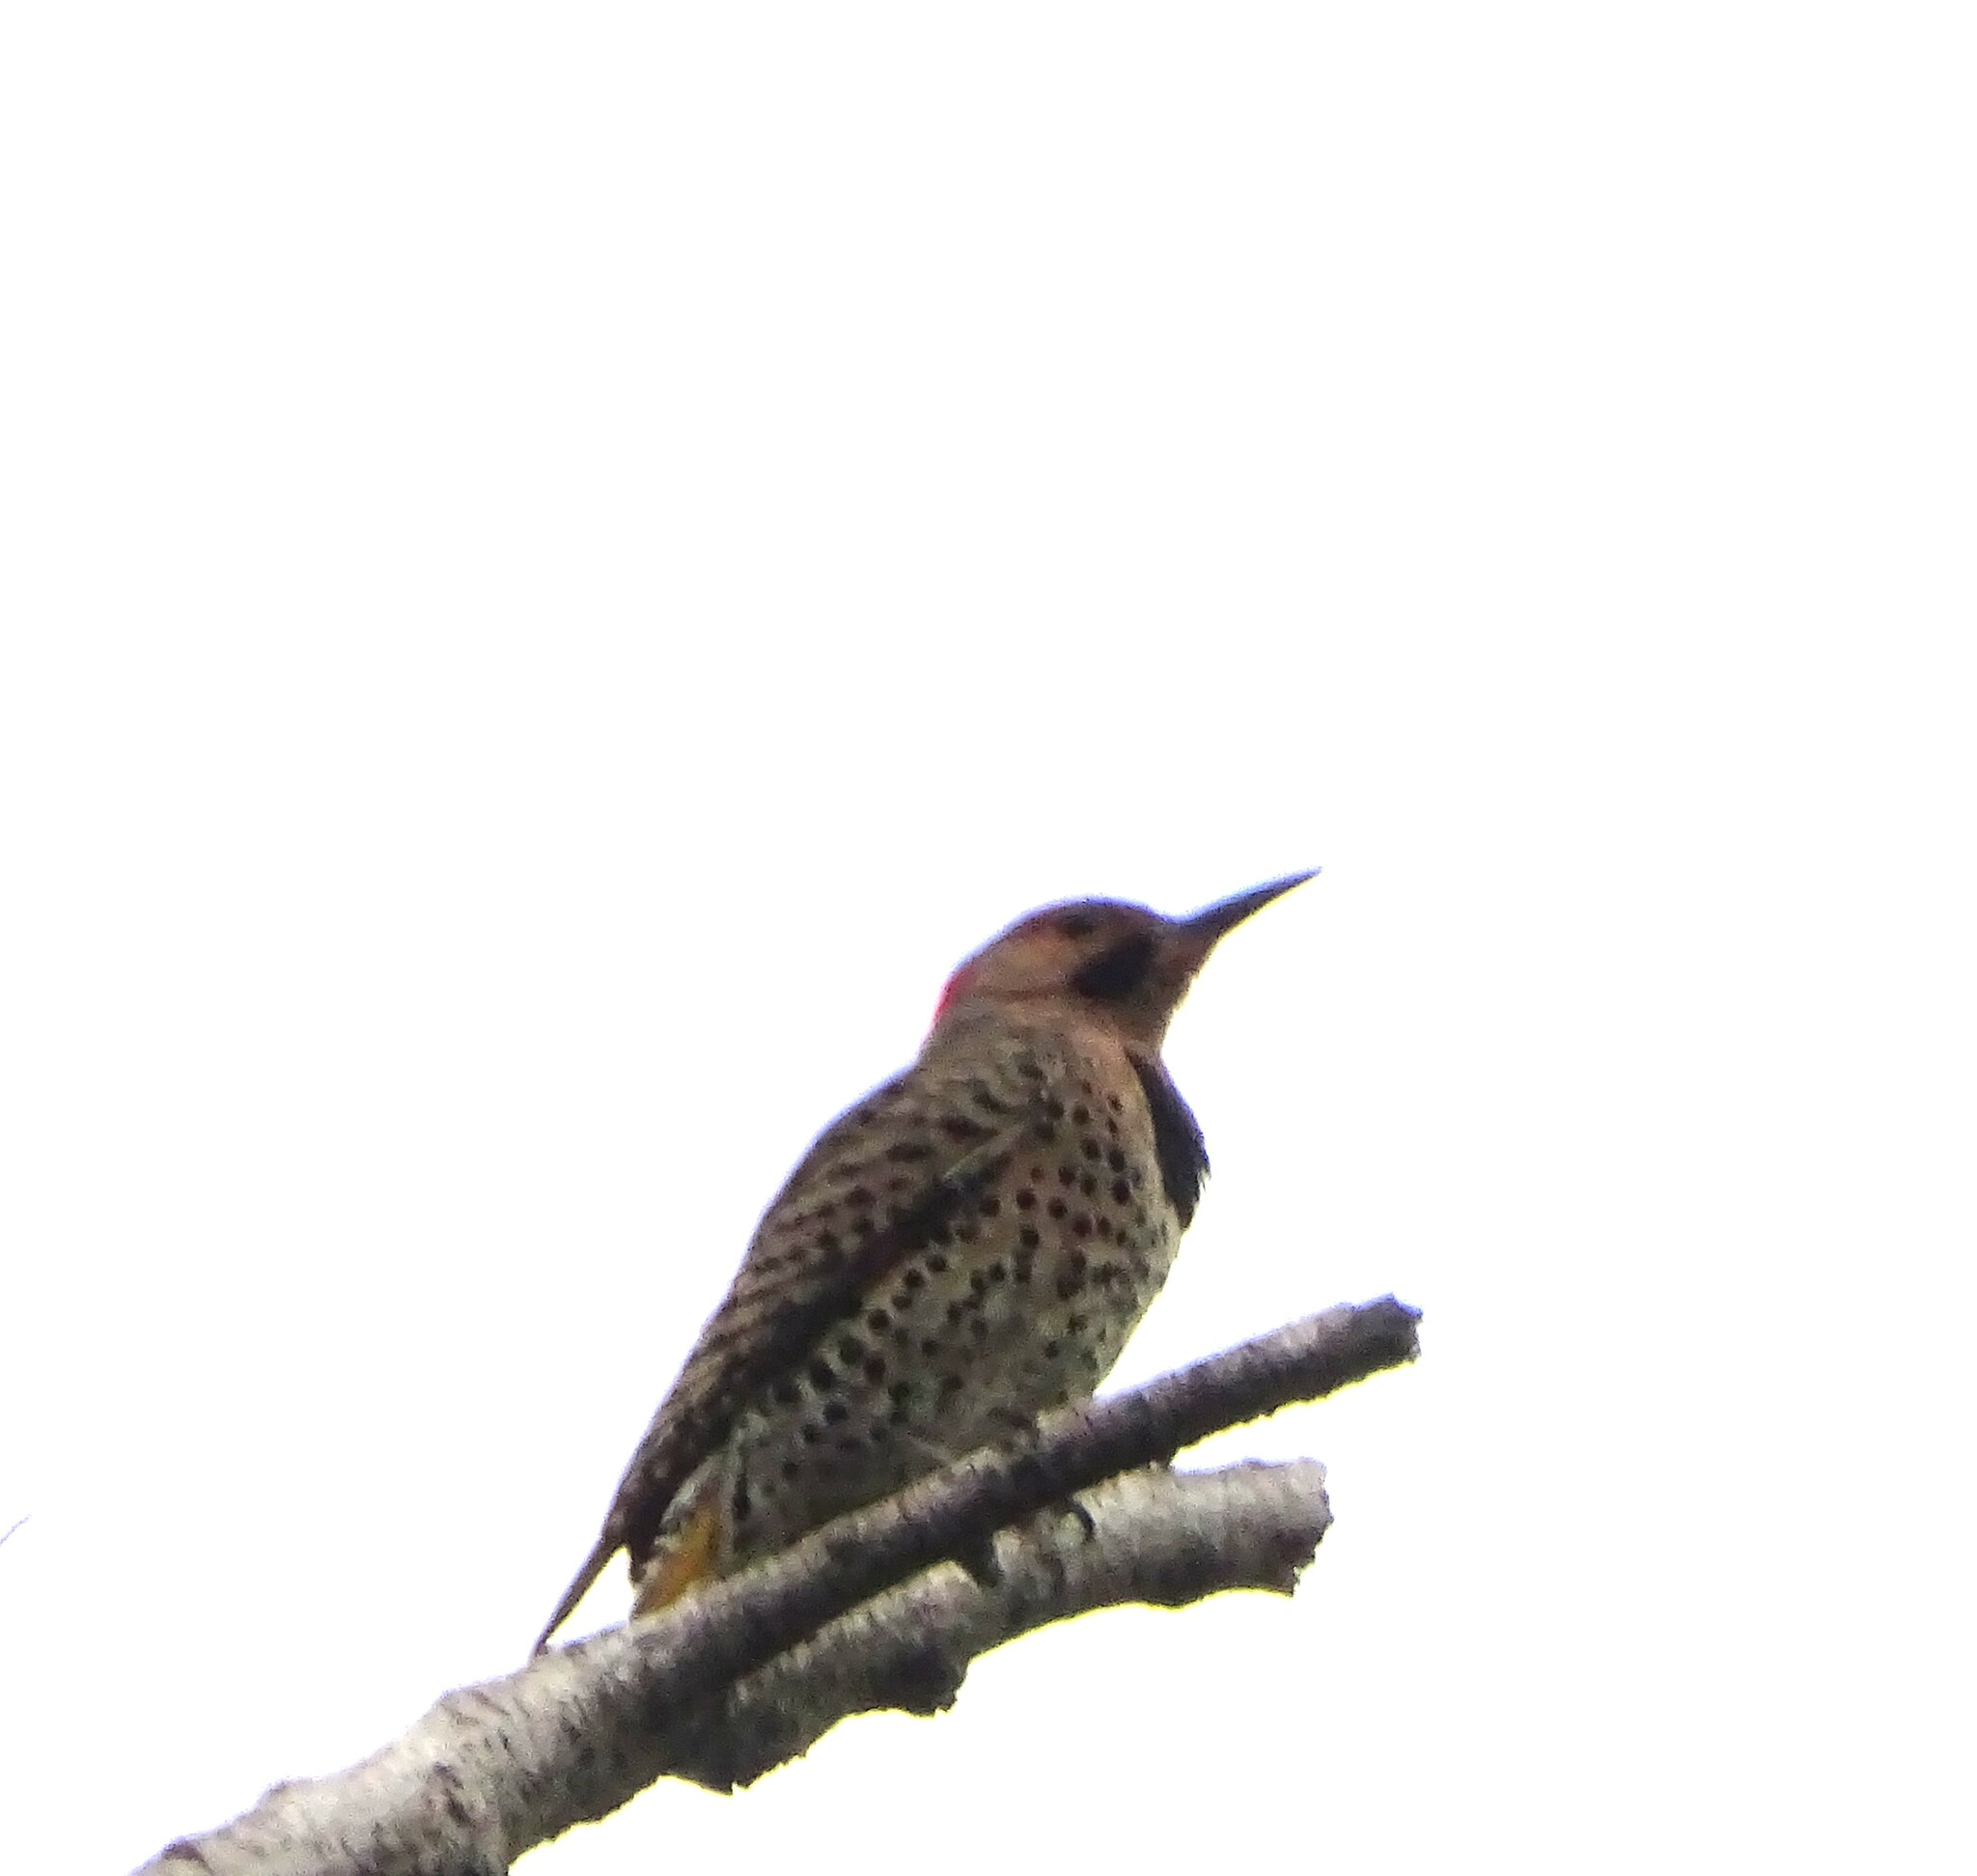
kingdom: Animalia
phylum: Chordata
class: Aves
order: Piciformes
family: Picidae
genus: Colaptes
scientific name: Colaptes auratus
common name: Northern flicker
